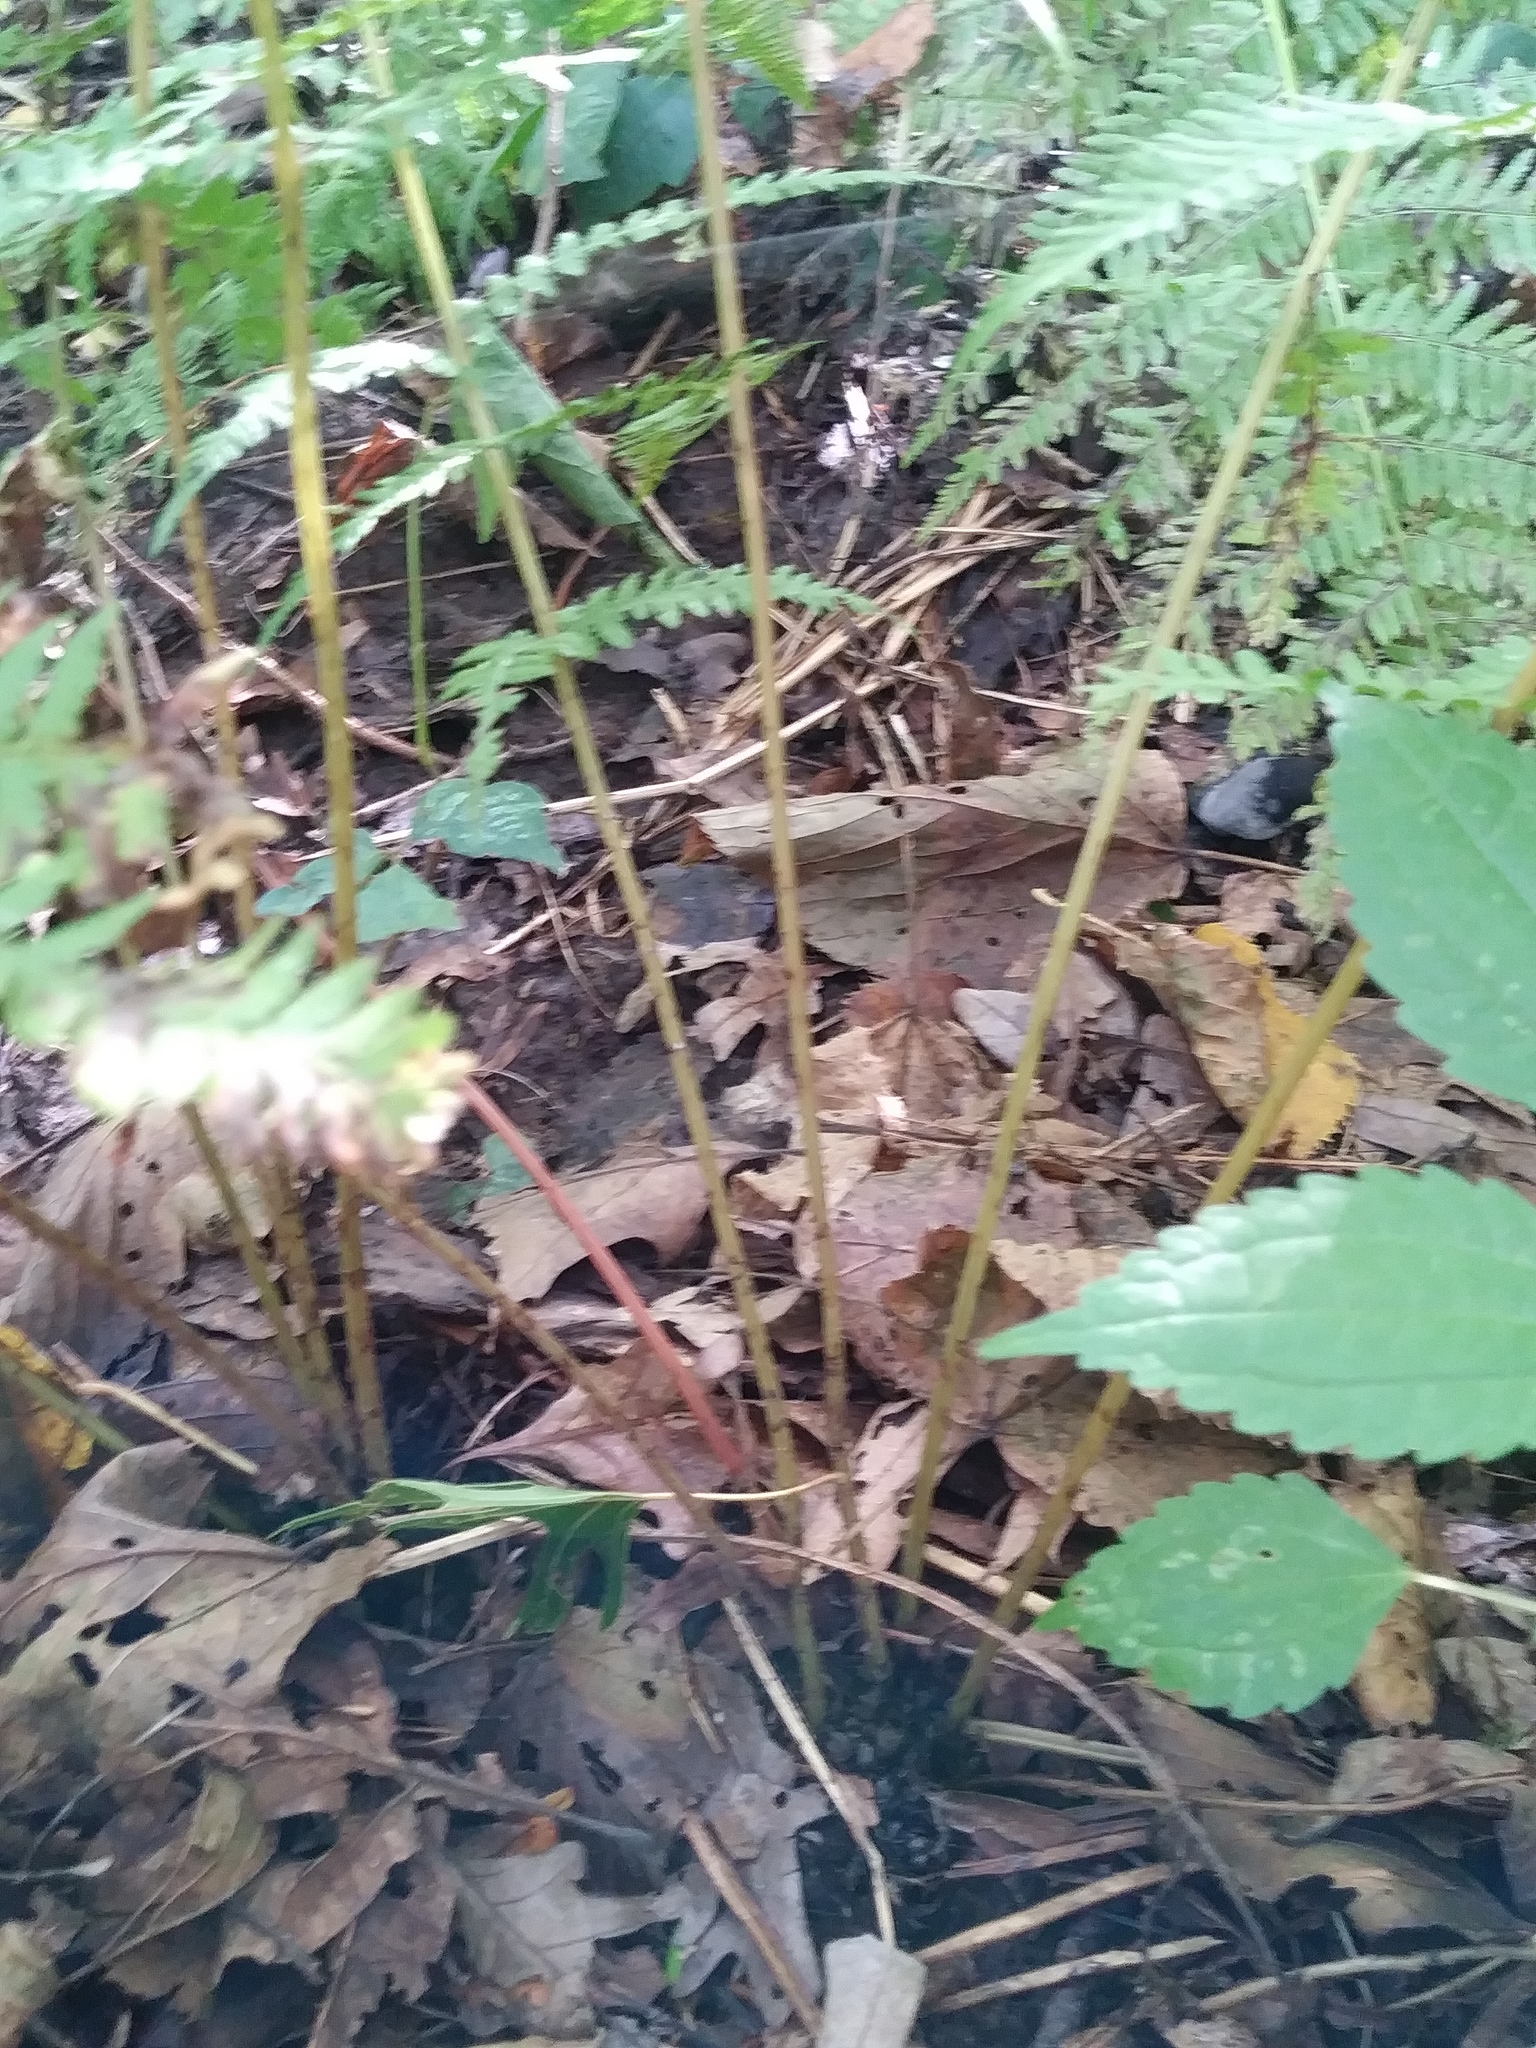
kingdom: Plantae
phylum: Tracheophyta
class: Polypodiopsida
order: Polypodiales
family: Athyriaceae
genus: Athyrium
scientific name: Athyrium angustum
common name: Northern lady fern
